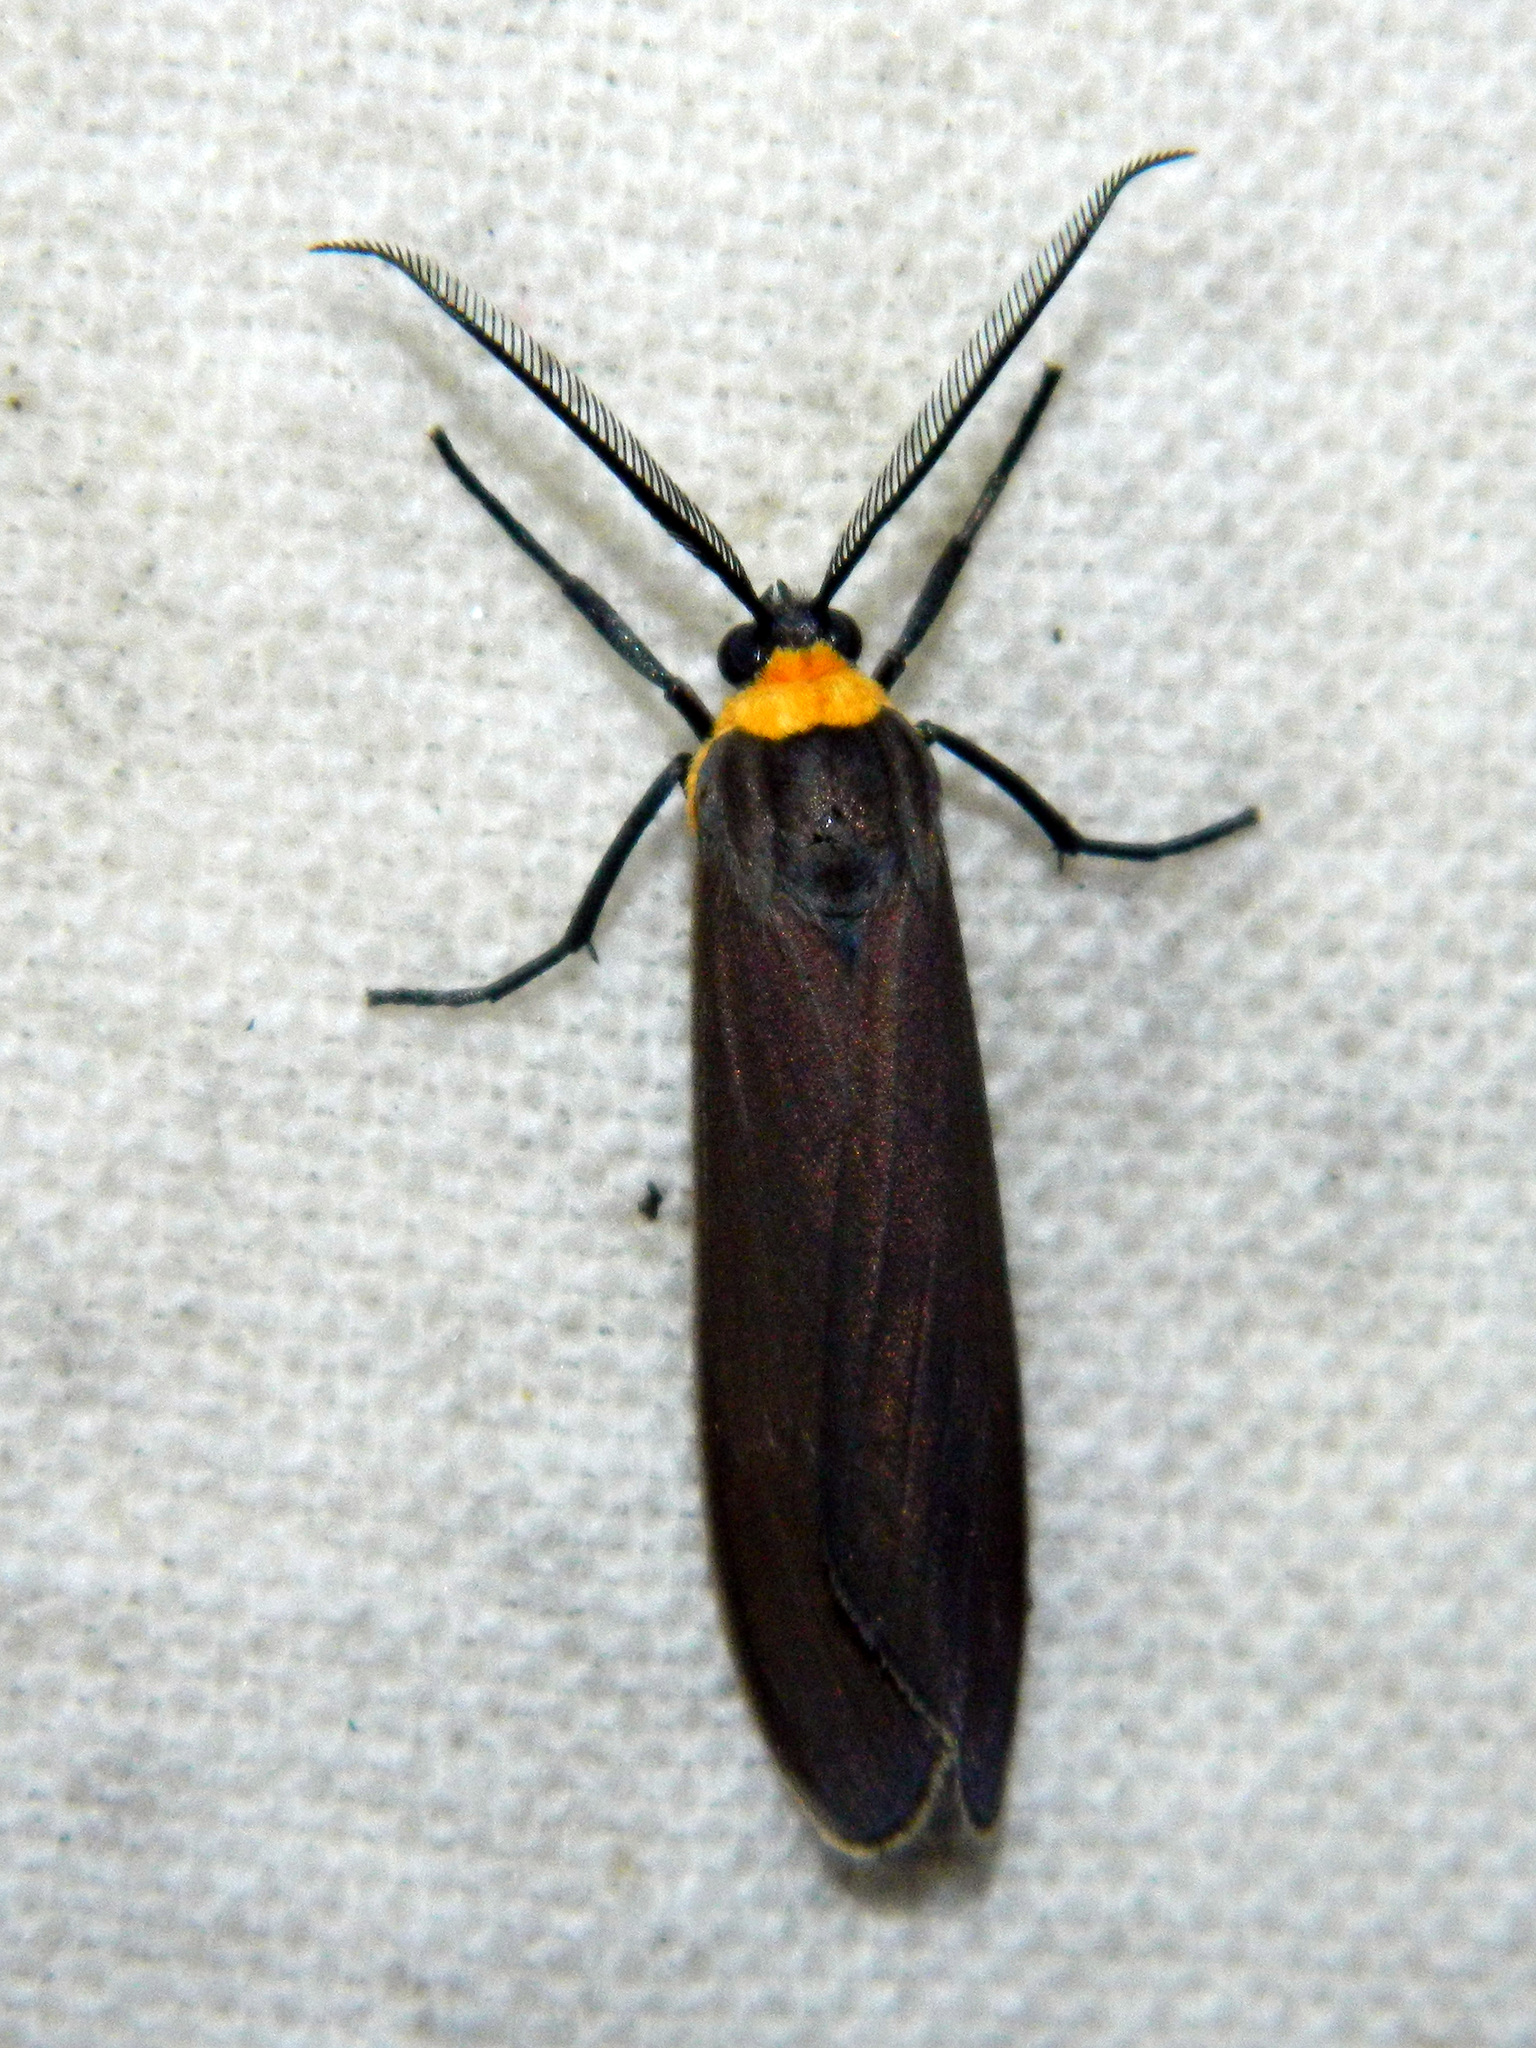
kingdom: Animalia
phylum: Arthropoda
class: Insecta
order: Lepidoptera
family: Erebidae
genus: Cisseps
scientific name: Cisseps fulvicollis
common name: Yellow-collared scape moth
